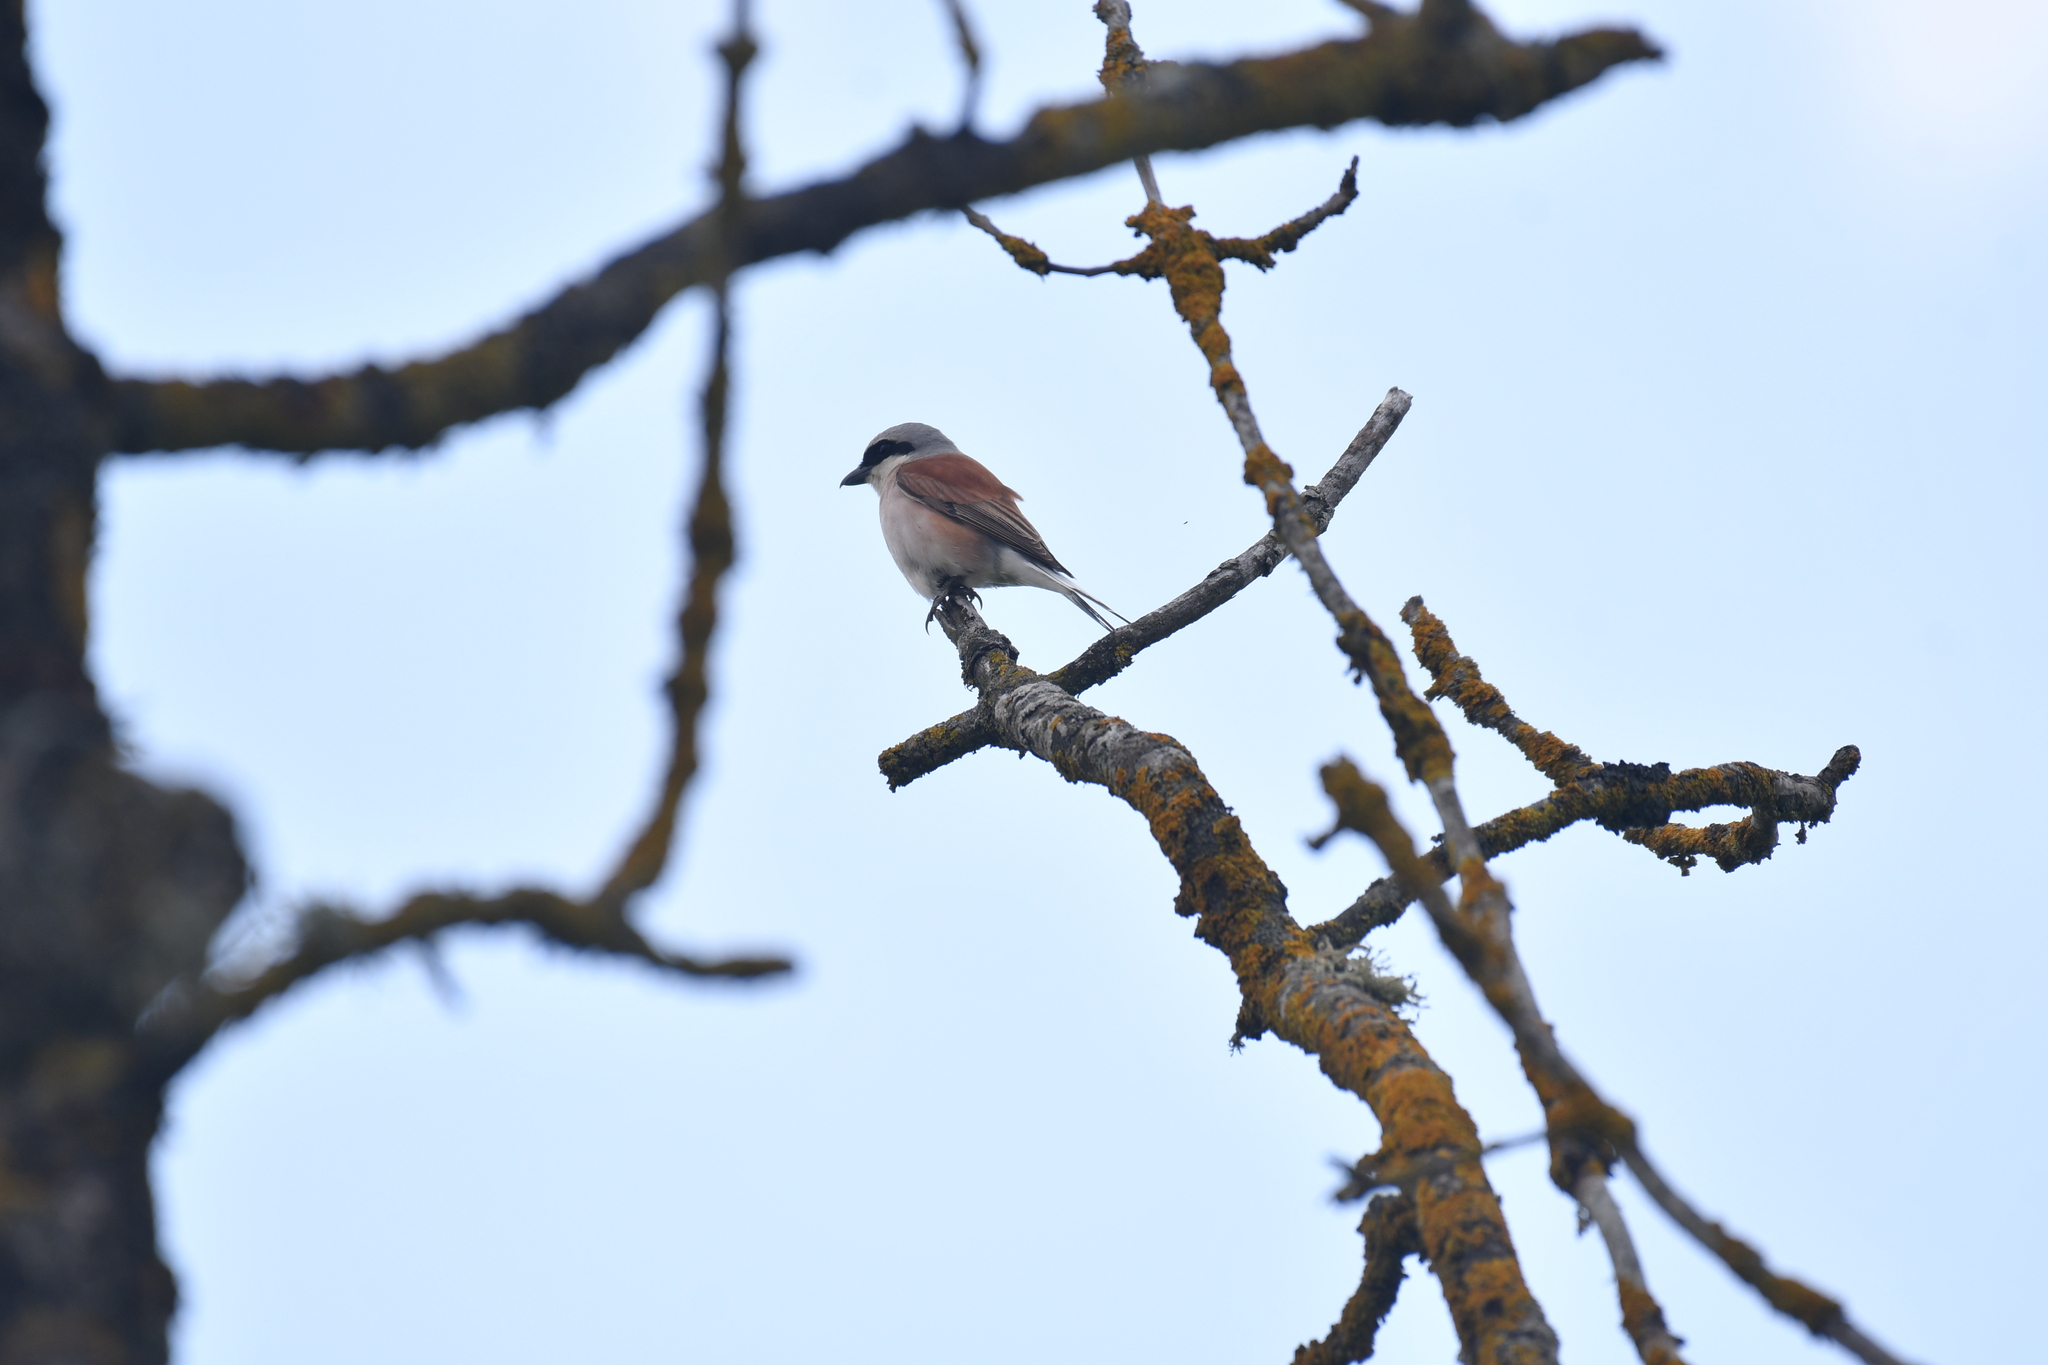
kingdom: Animalia
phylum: Chordata
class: Aves
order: Passeriformes
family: Laniidae
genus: Lanius
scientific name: Lanius collurio
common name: Red-backed shrike
